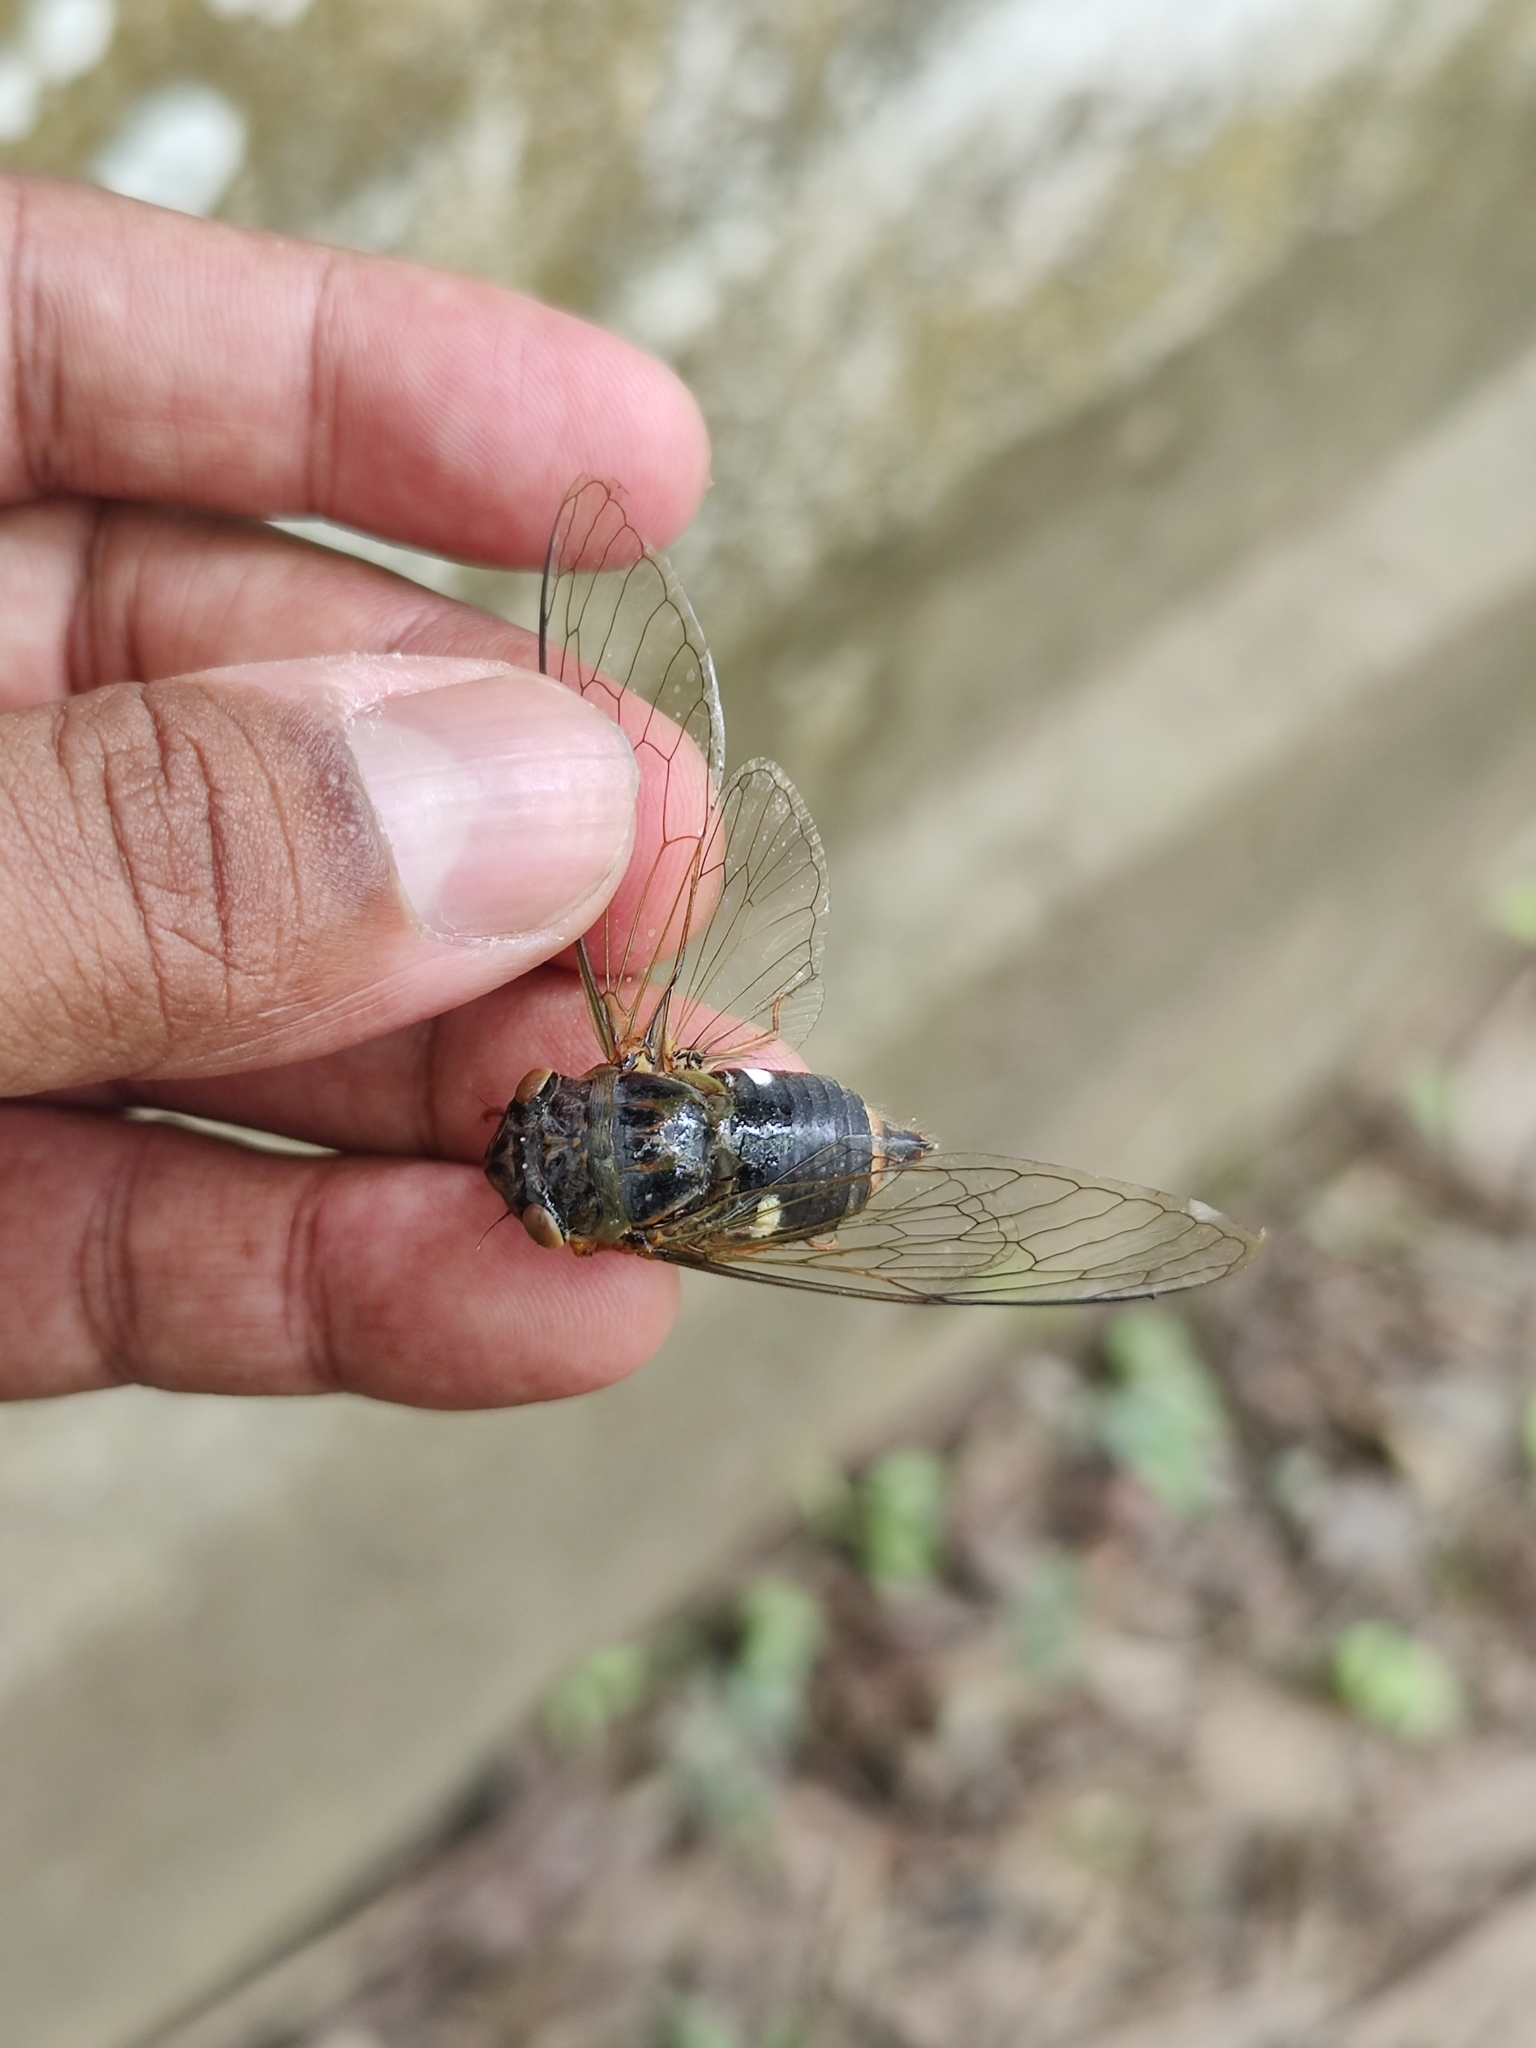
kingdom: Animalia
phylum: Arthropoda
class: Insecta
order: Hemiptera
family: Cicadidae
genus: Chremistica
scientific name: Chremistica ribhoi
